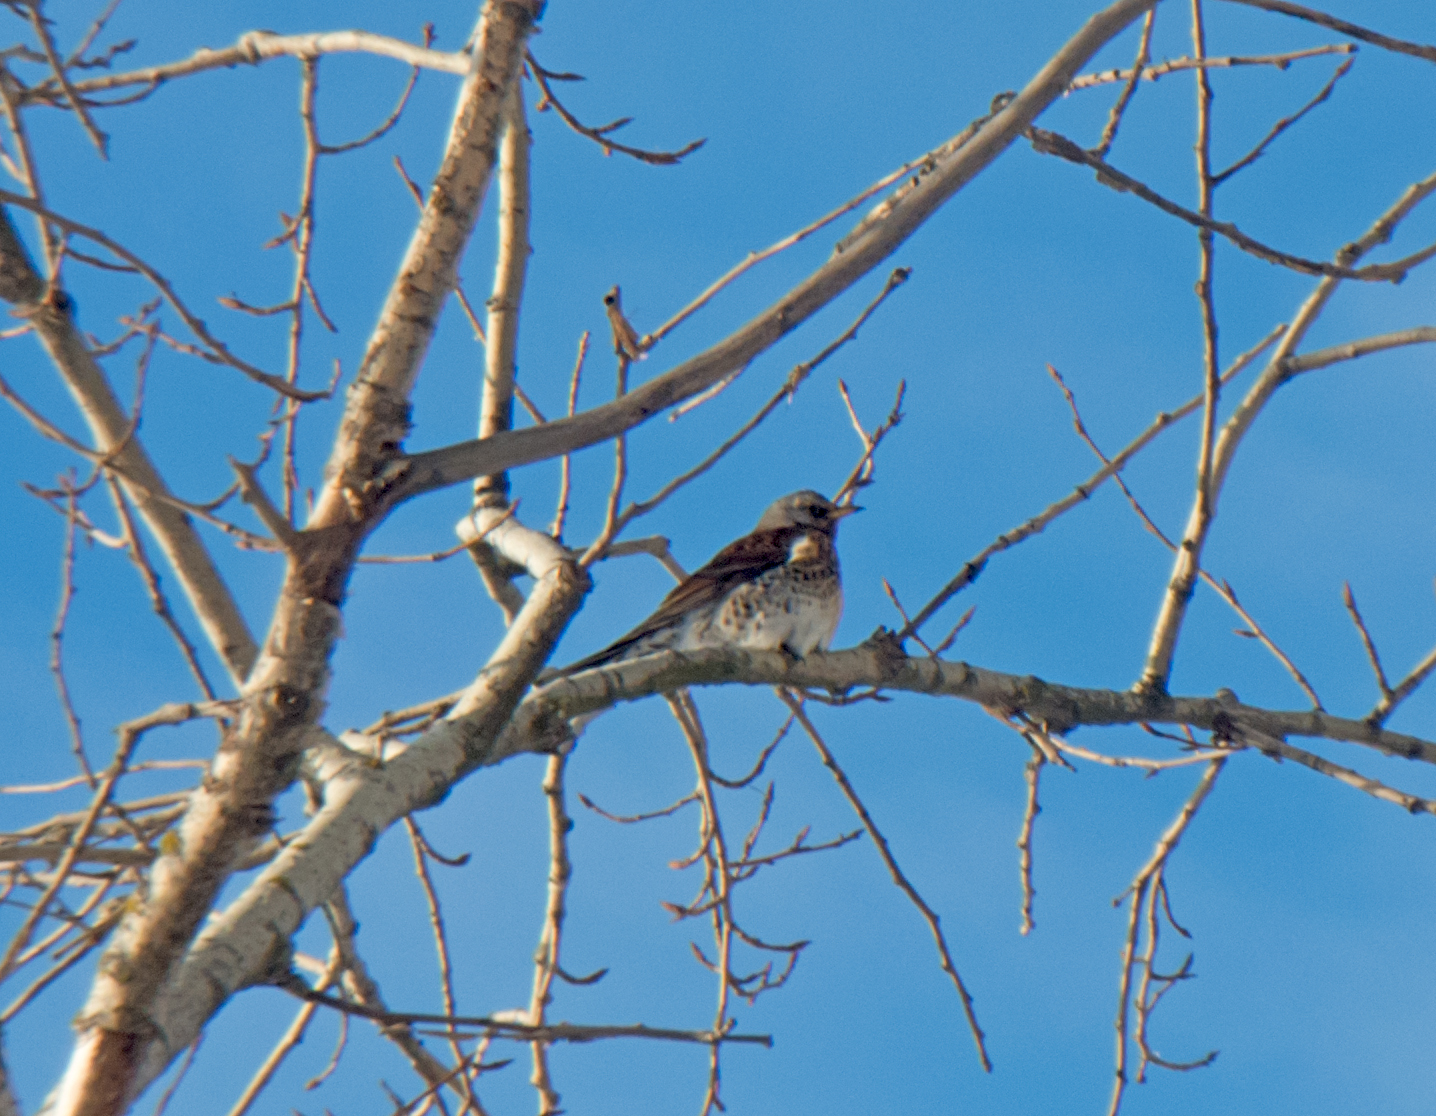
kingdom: Animalia
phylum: Chordata
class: Aves
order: Passeriformes
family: Turdidae
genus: Turdus
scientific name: Turdus pilaris
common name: Fieldfare
